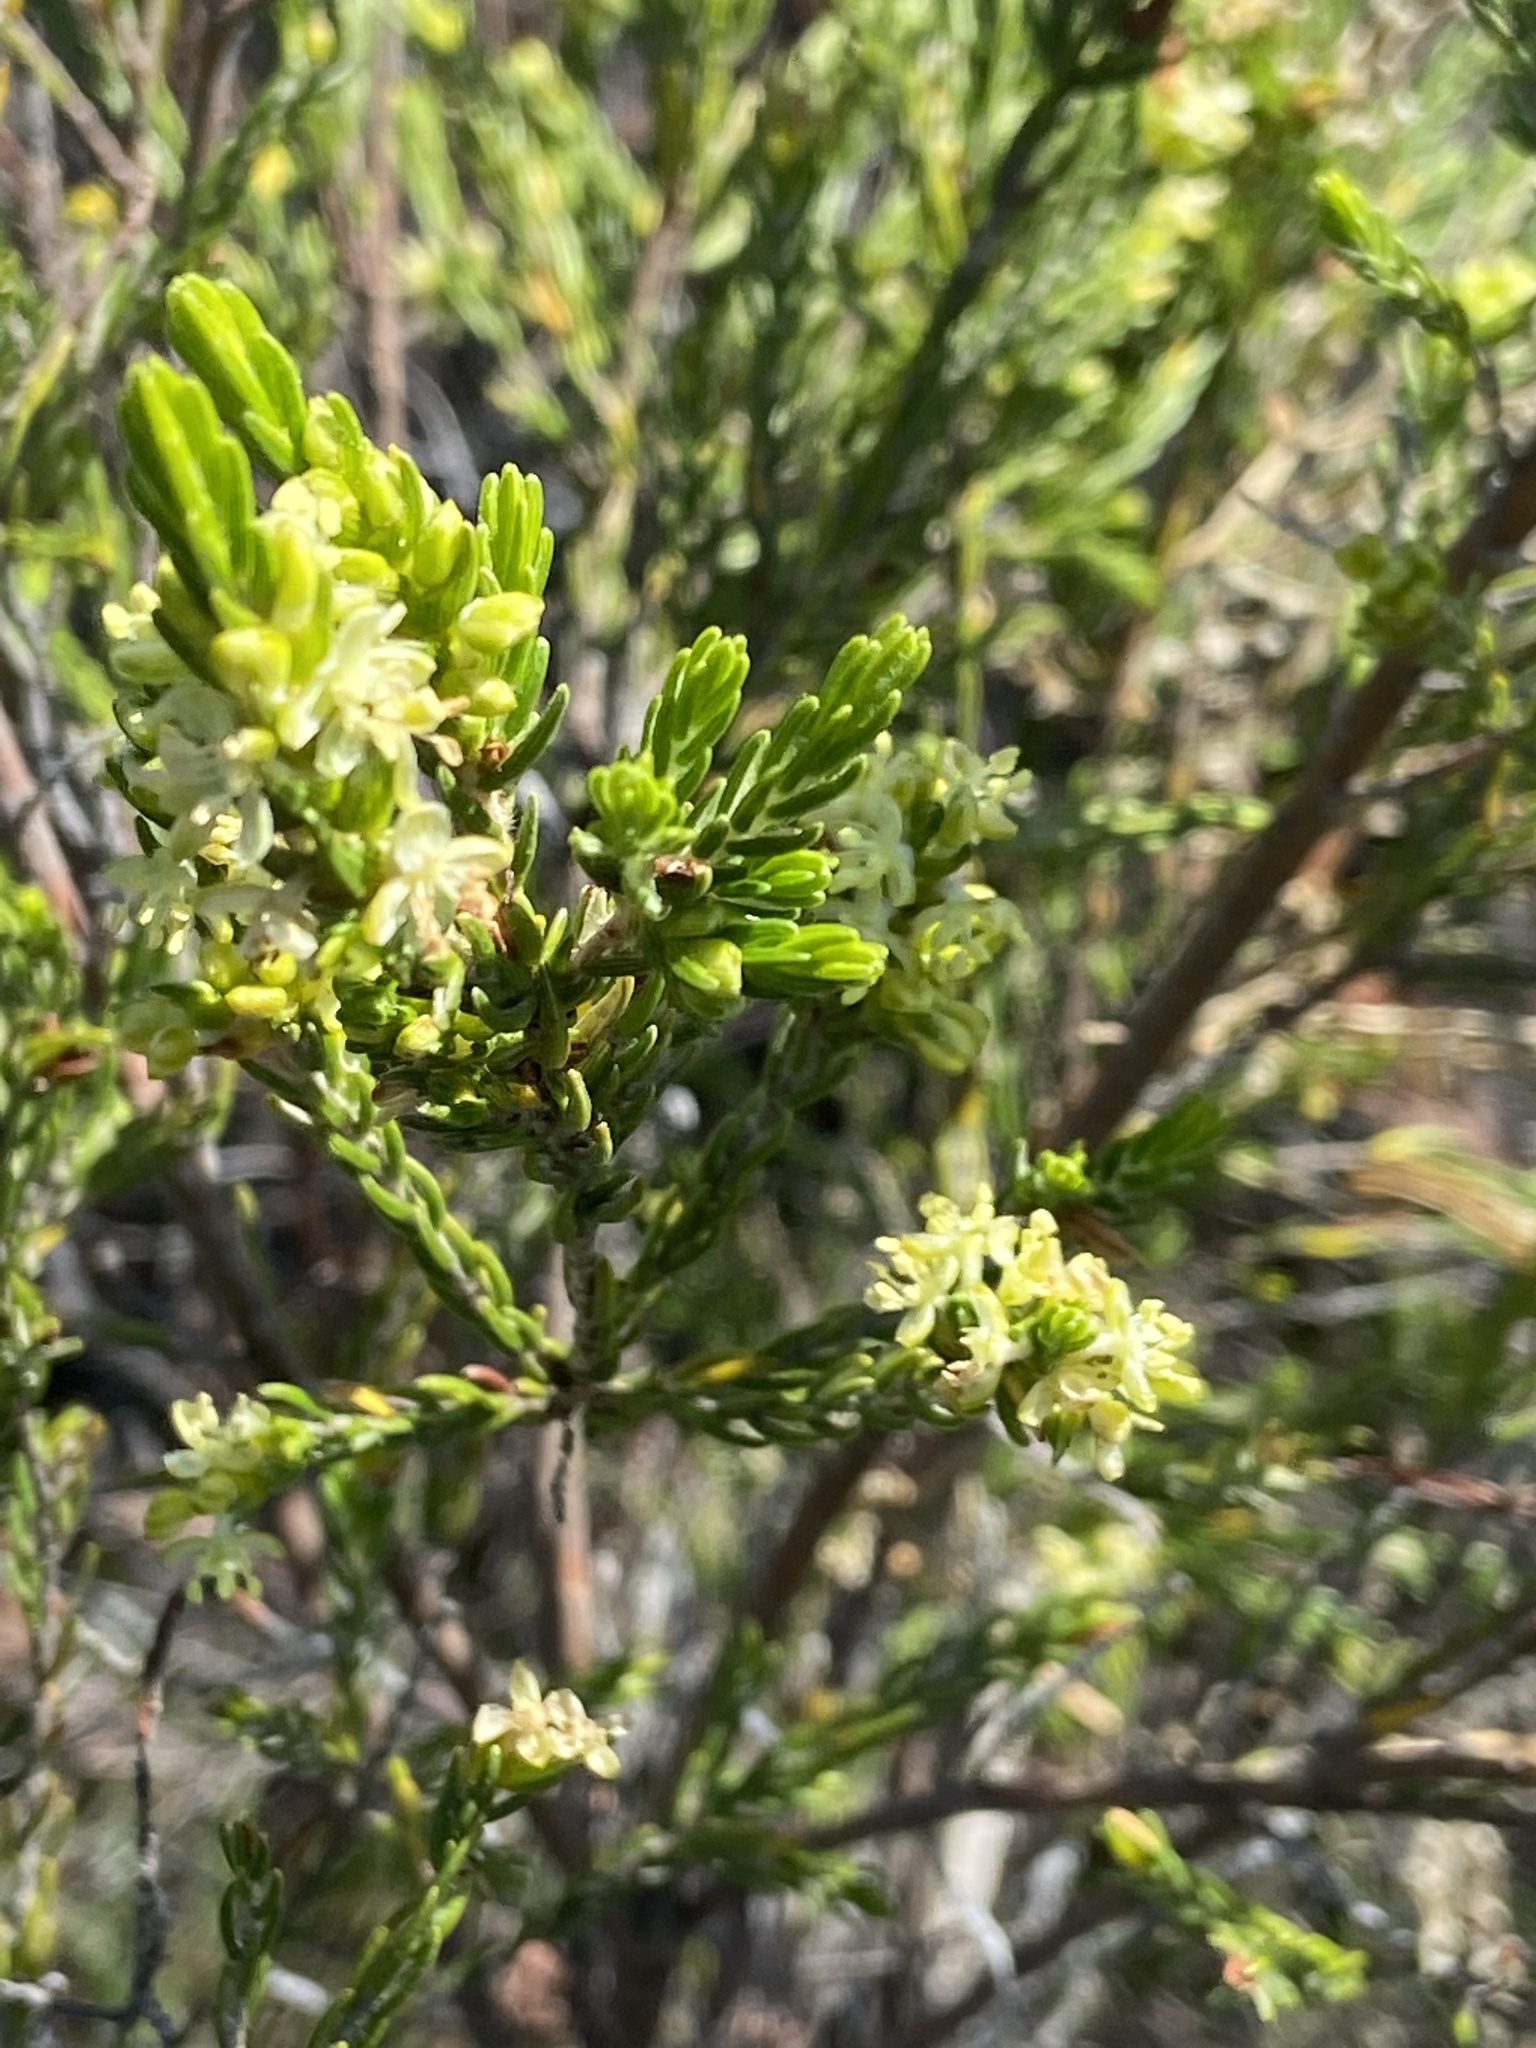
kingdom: Plantae
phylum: Tracheophyta
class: Magnoliopsida
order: Malvales
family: Thymelaeaceae
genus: Passerina
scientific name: Passerina corymbosa
